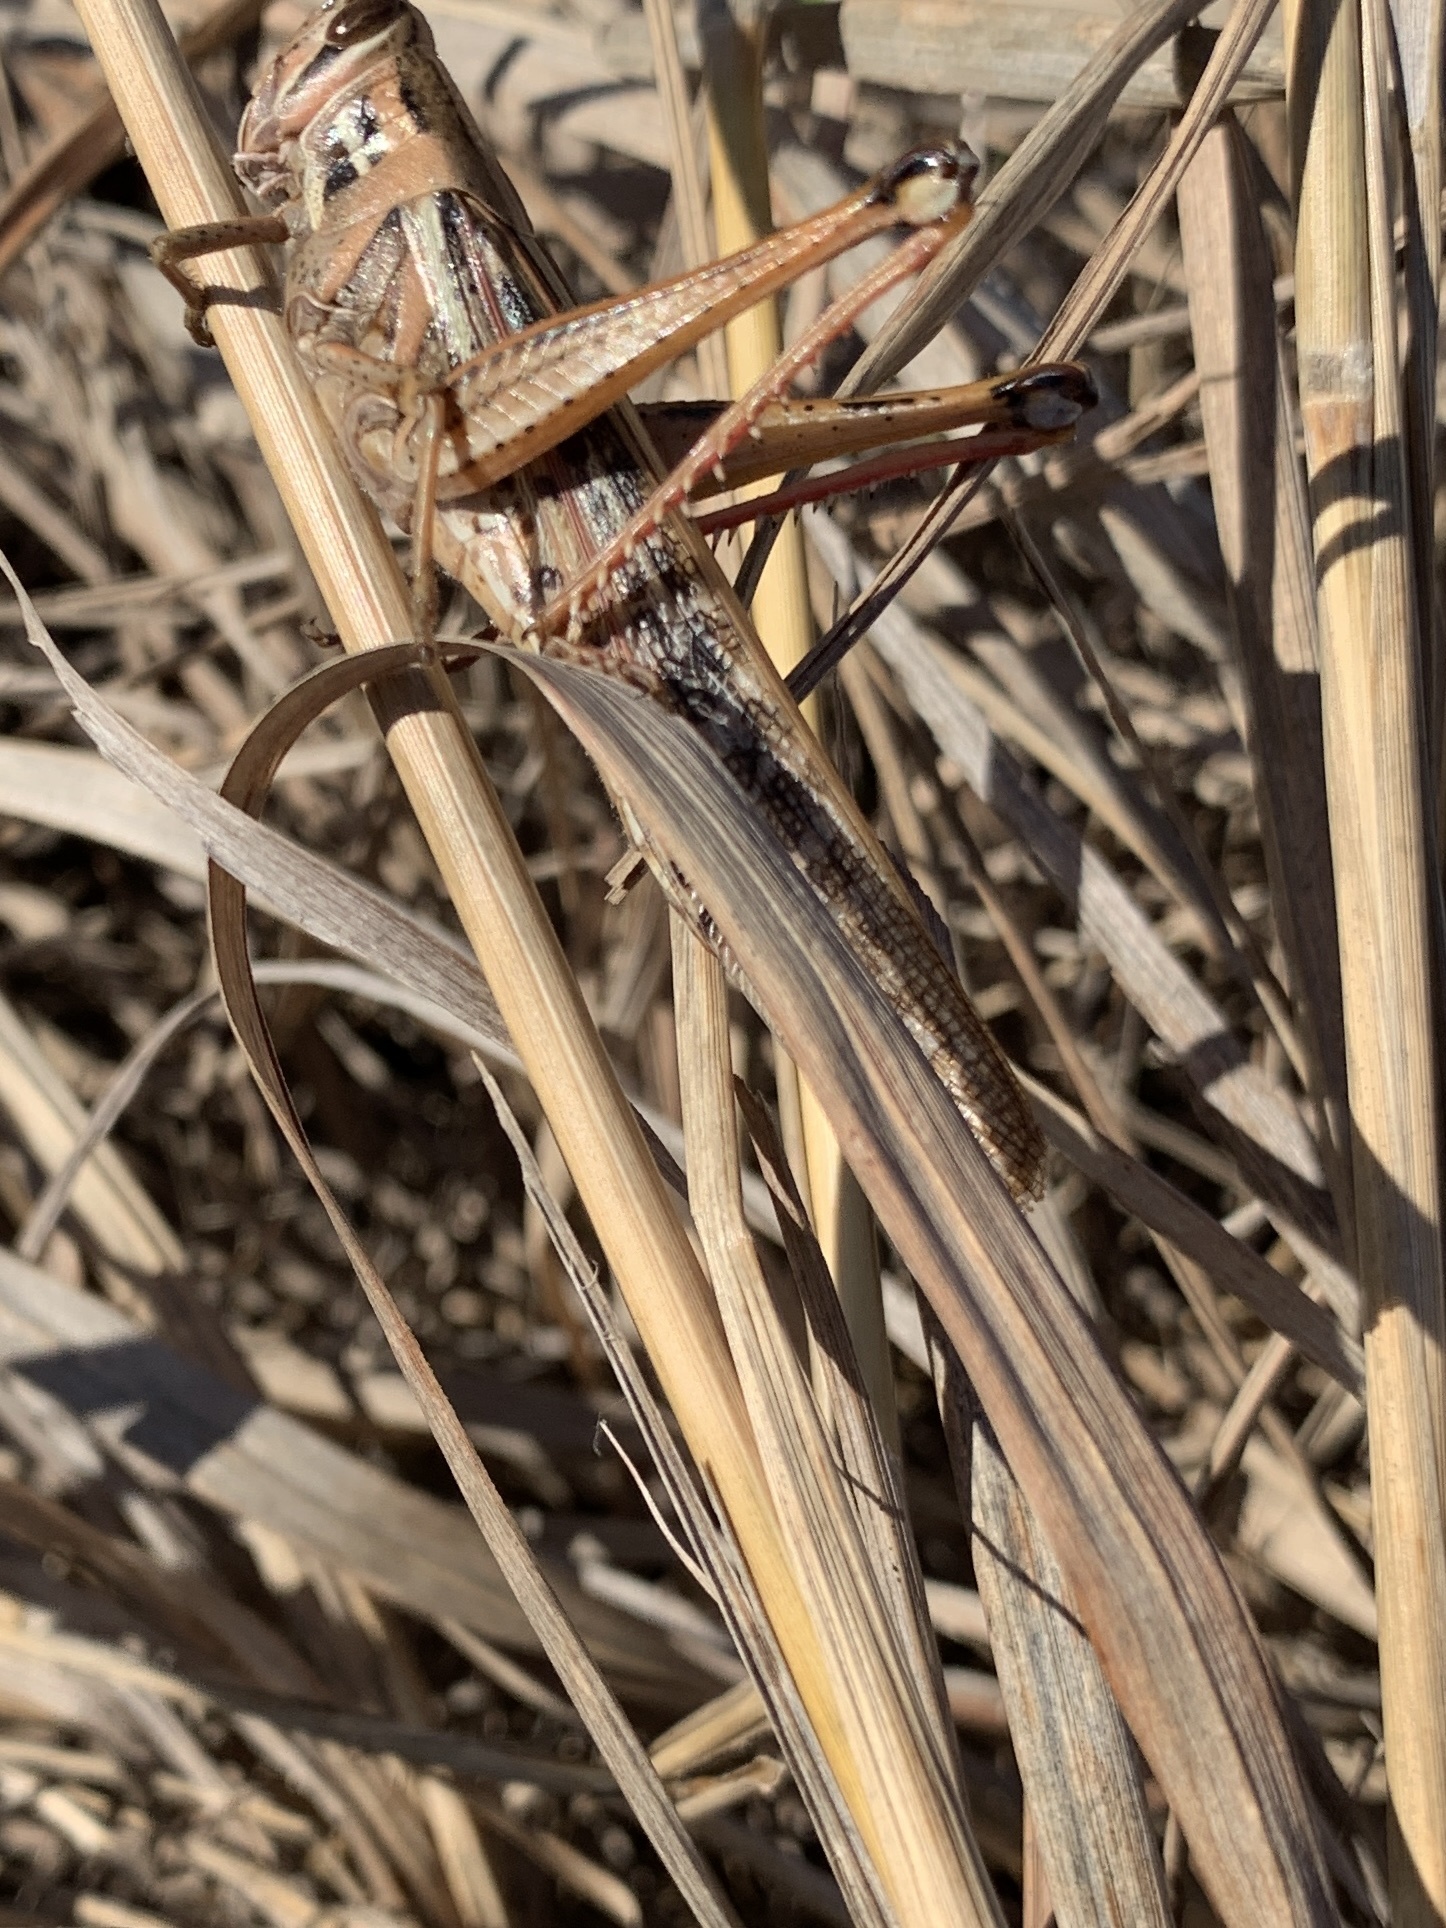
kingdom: Animalia
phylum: Arthropoda
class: Insecta
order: Orthoptera
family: Acrididae
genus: Schistocerca
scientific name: Schistocerca americana
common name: American bird locust
